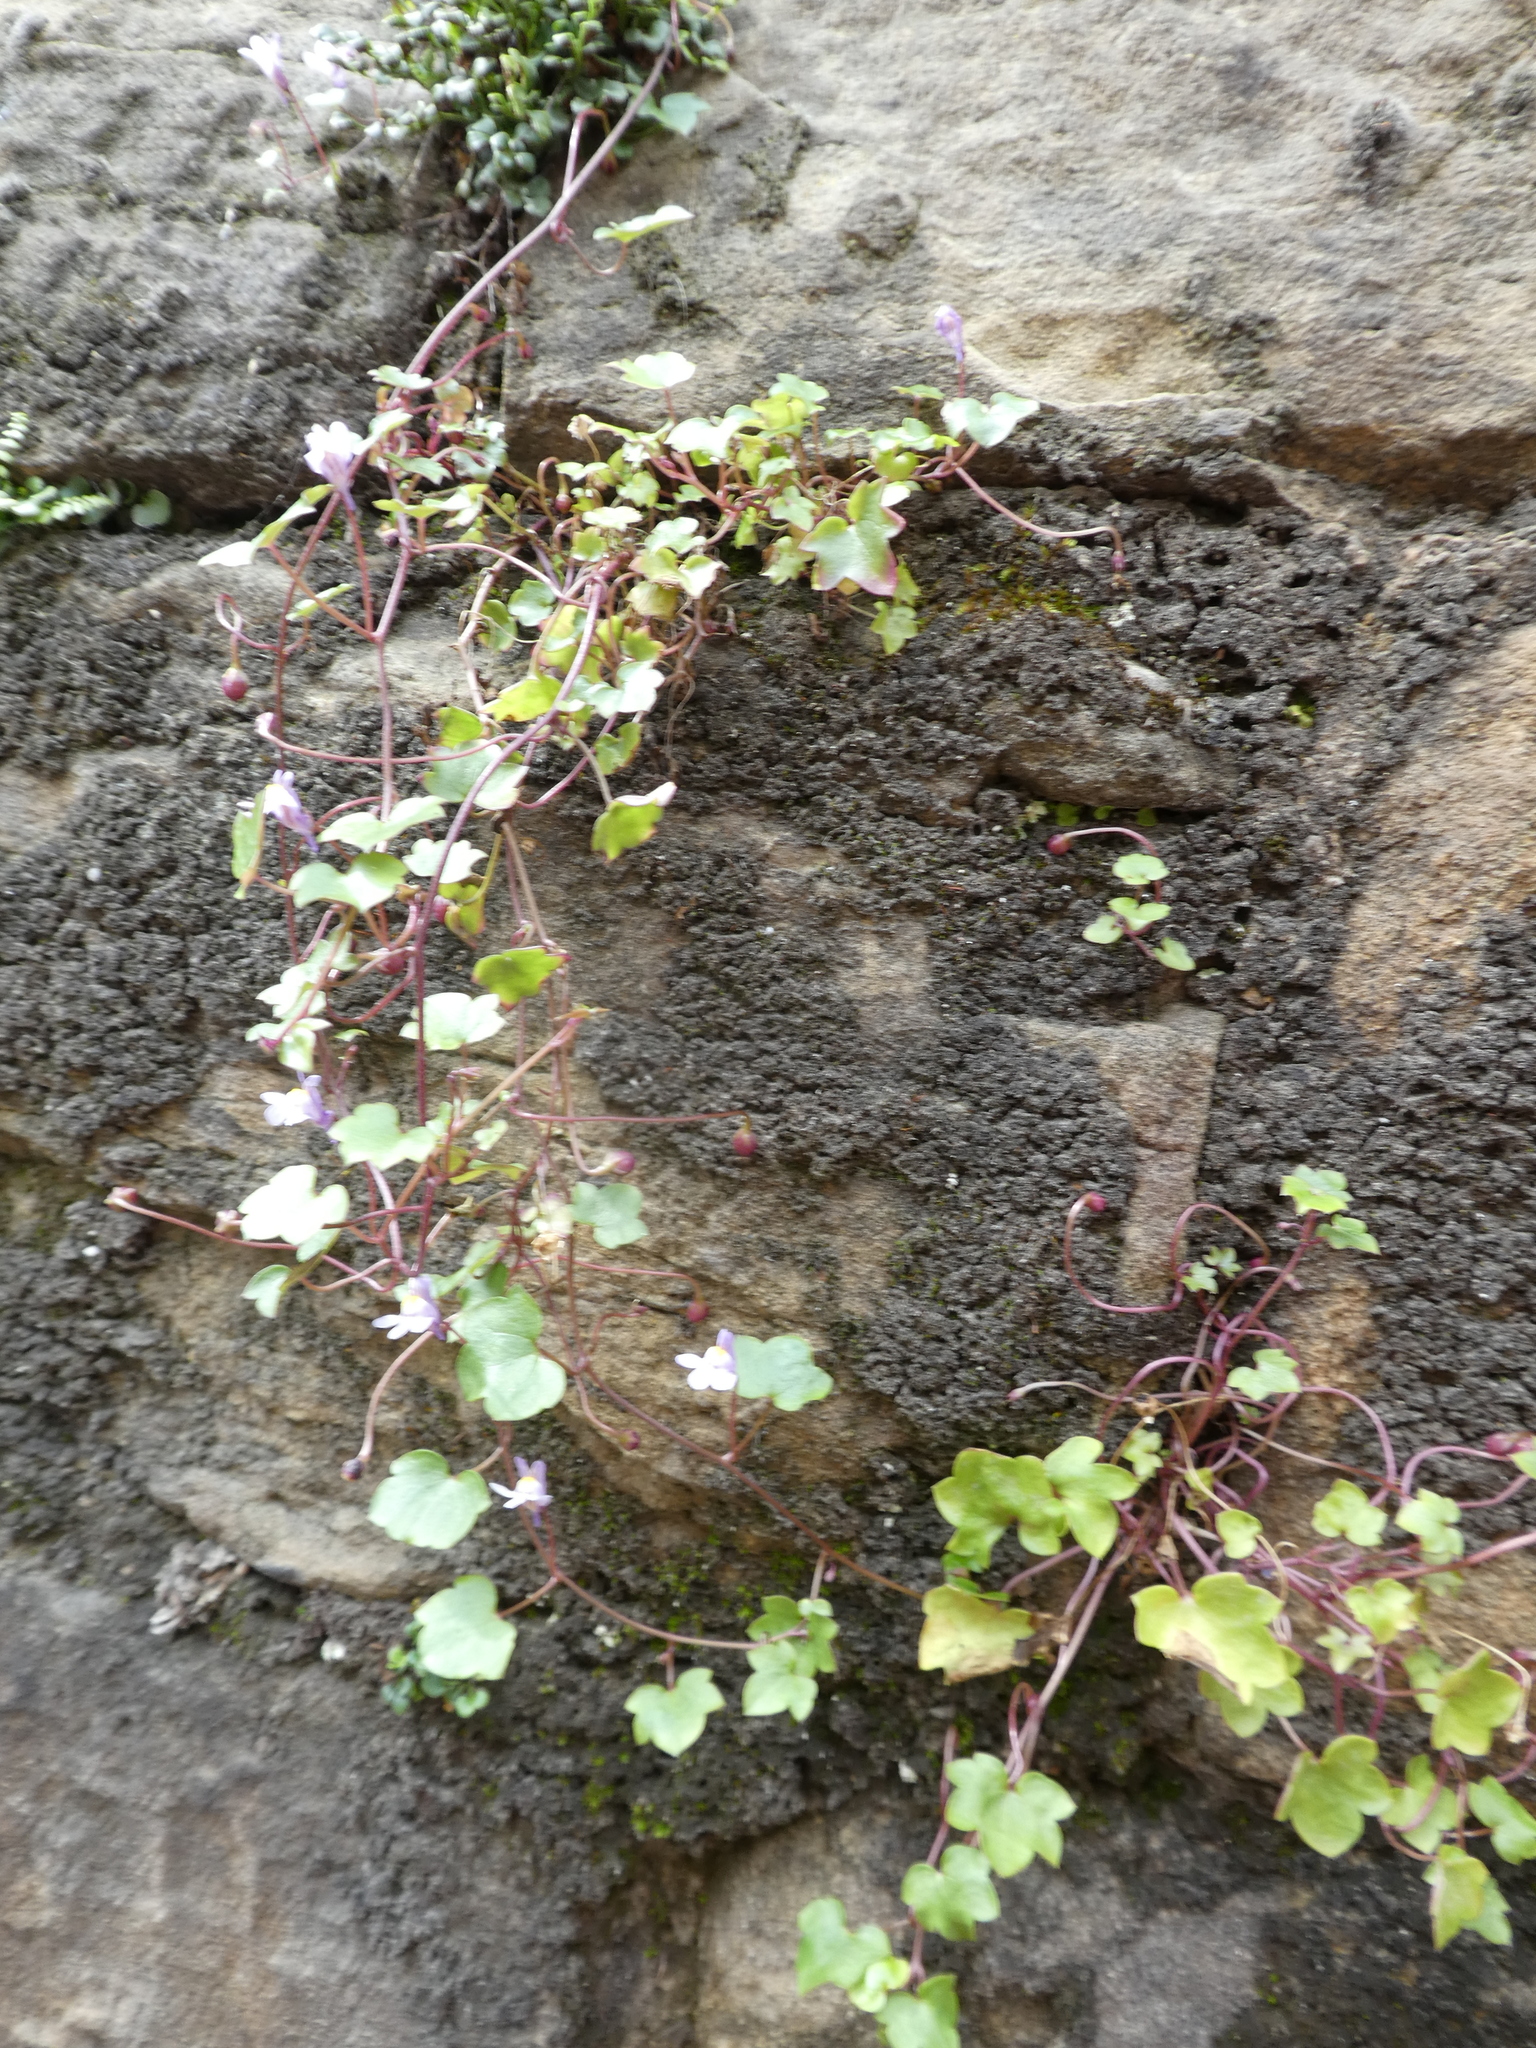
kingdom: Plantae
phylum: Tracheophyta
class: Magnoliopsida
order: Lamiales
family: Plantaginaceae
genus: Cymbalaria
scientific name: Cymbalaria muralis
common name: Ivy-leaved toadflax
